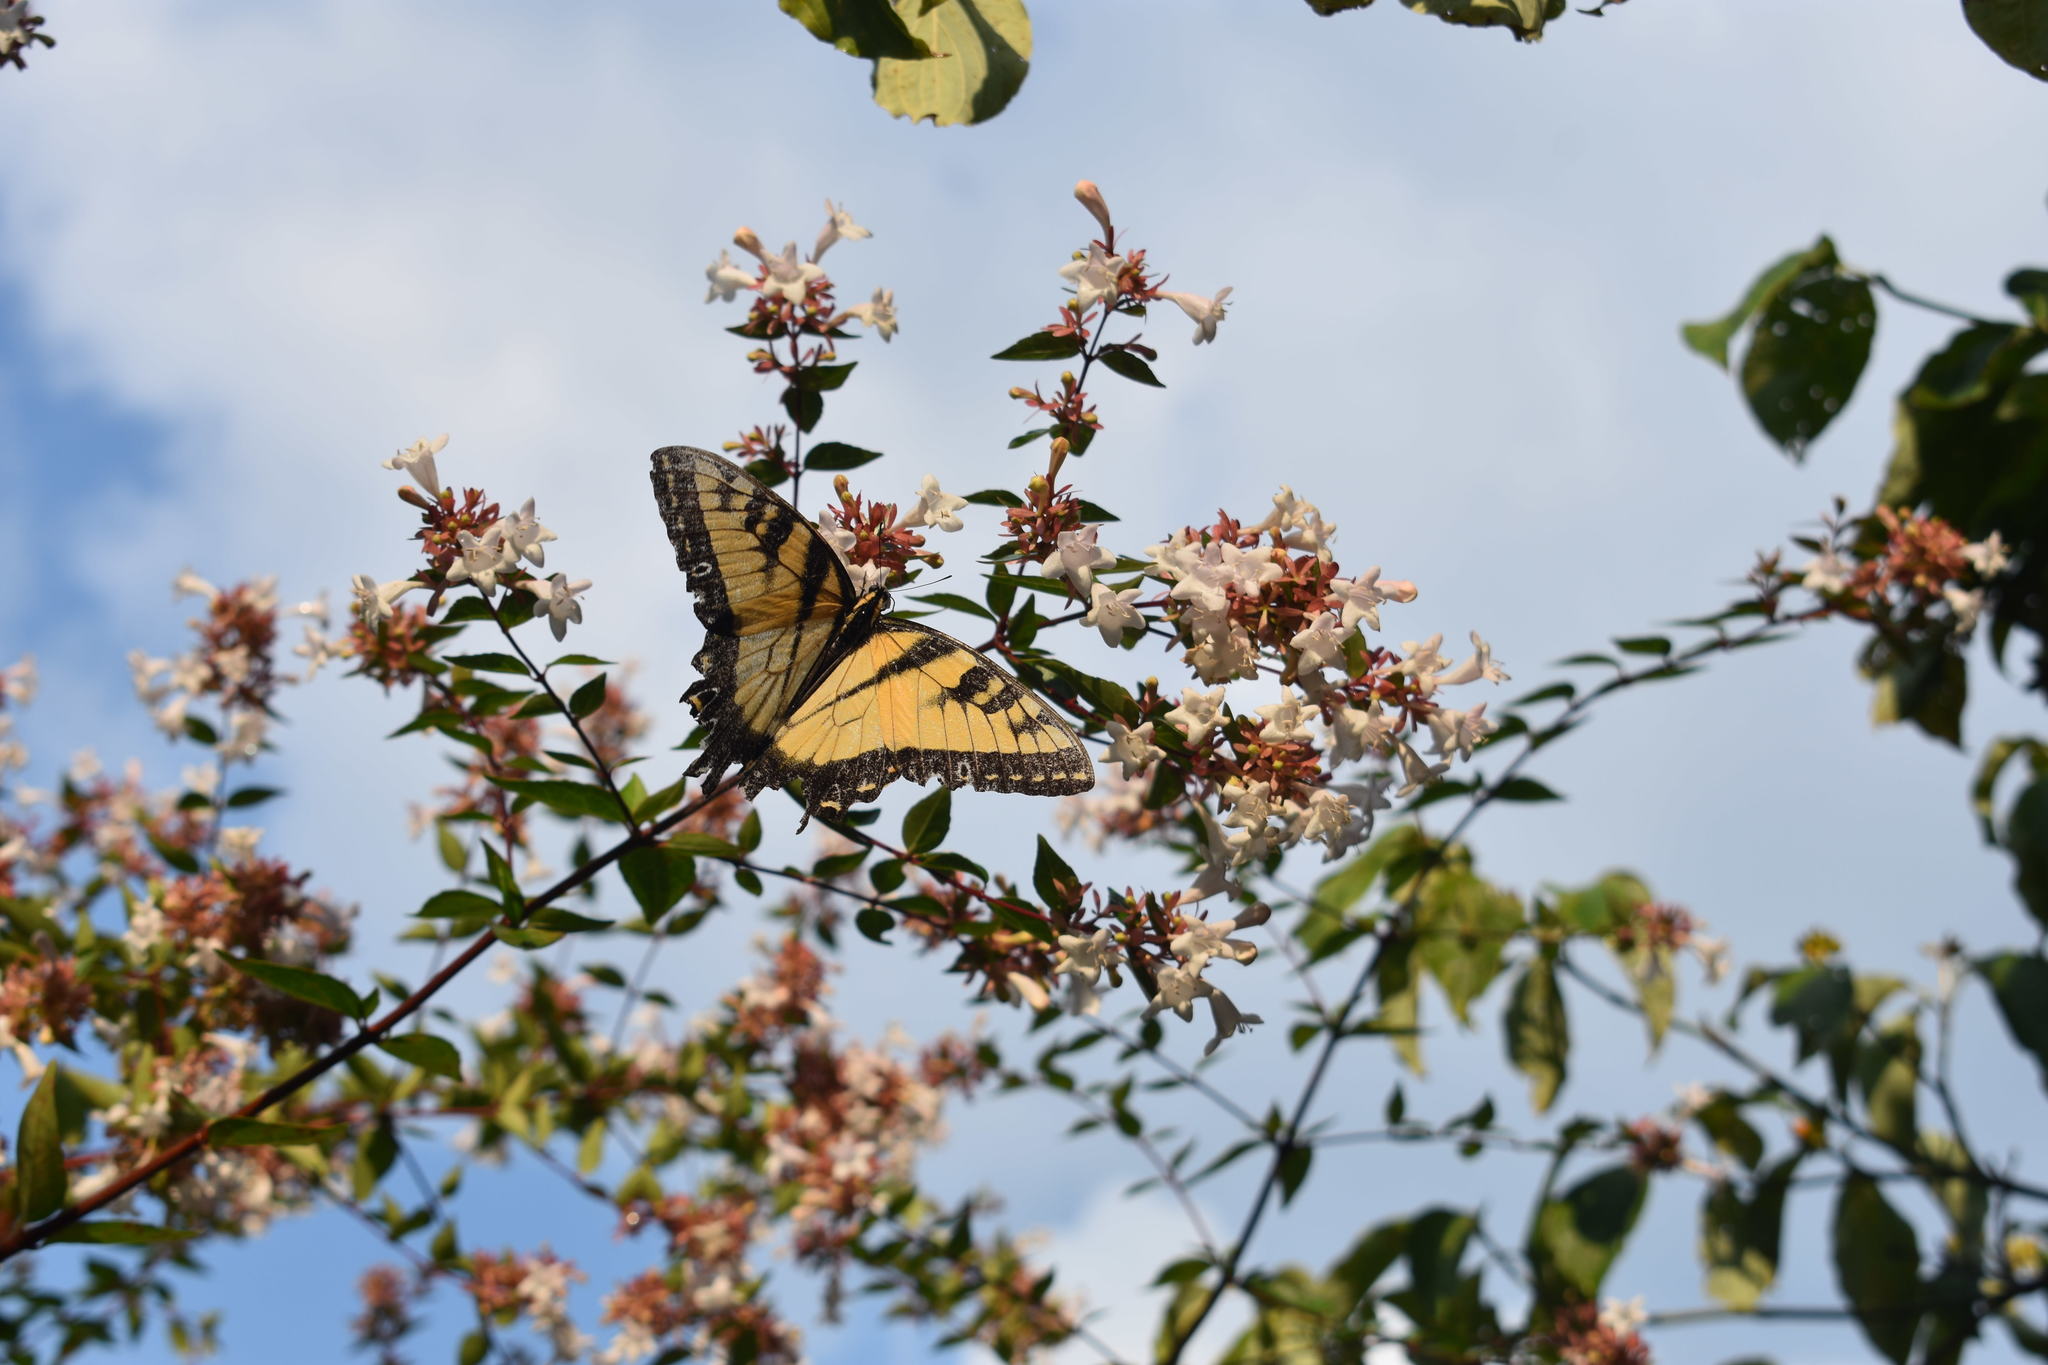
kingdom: Animalia
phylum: Arthropoda
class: Insecta
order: Lepidoptera
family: Papilionidae
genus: Papilio
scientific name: Papilio glaucus
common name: Tiger swallowtail
